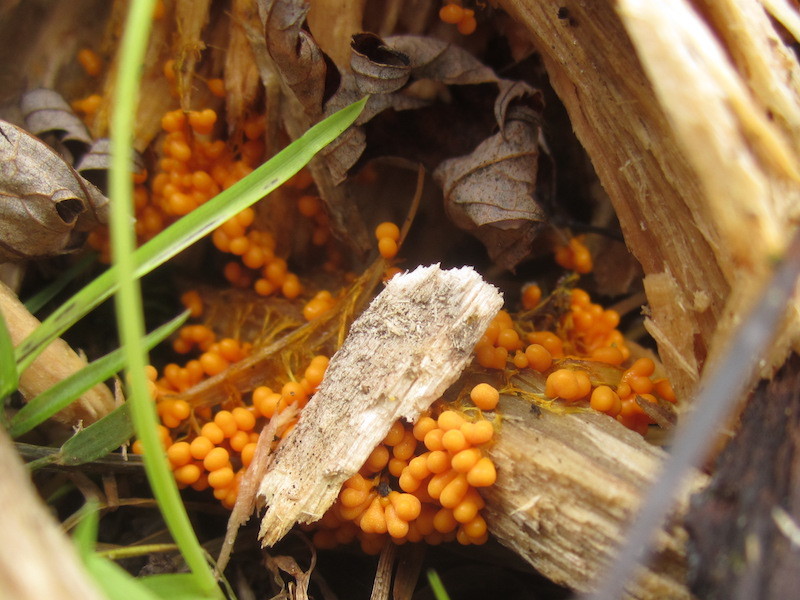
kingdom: Protozoa
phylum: Mycetozoa
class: Myxomycetes
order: Physarales
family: Physaraceae
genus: Badhamia
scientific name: Badhamia utricularis
